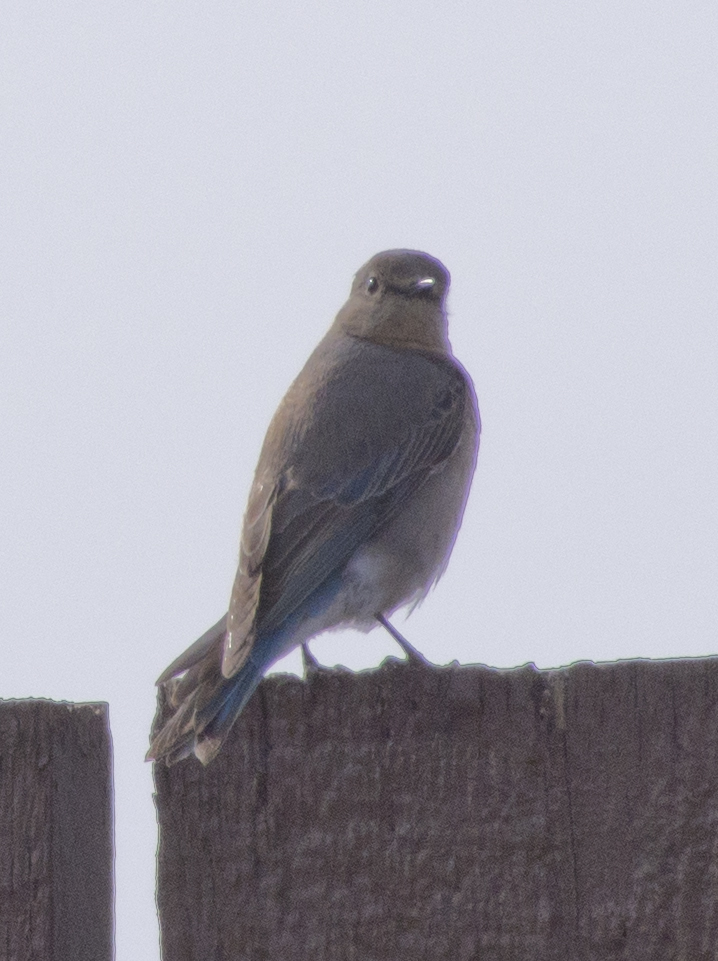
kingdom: Animalia
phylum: Chordata
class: Aves
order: Passeriformes
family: Turdidae
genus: Sialia
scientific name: Sialia currucoides
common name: Mountain bluebird
